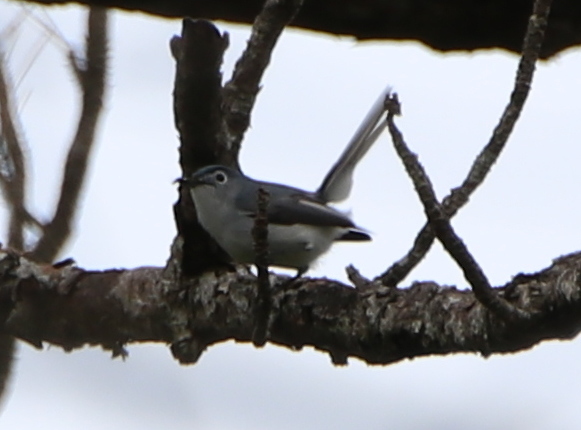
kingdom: Animalia
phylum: Chordata
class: Aves
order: Passeriformes
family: Polioptilidae
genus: Polioptila
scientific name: Polioptila caerulea
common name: Blue-gray gnatcatcher
